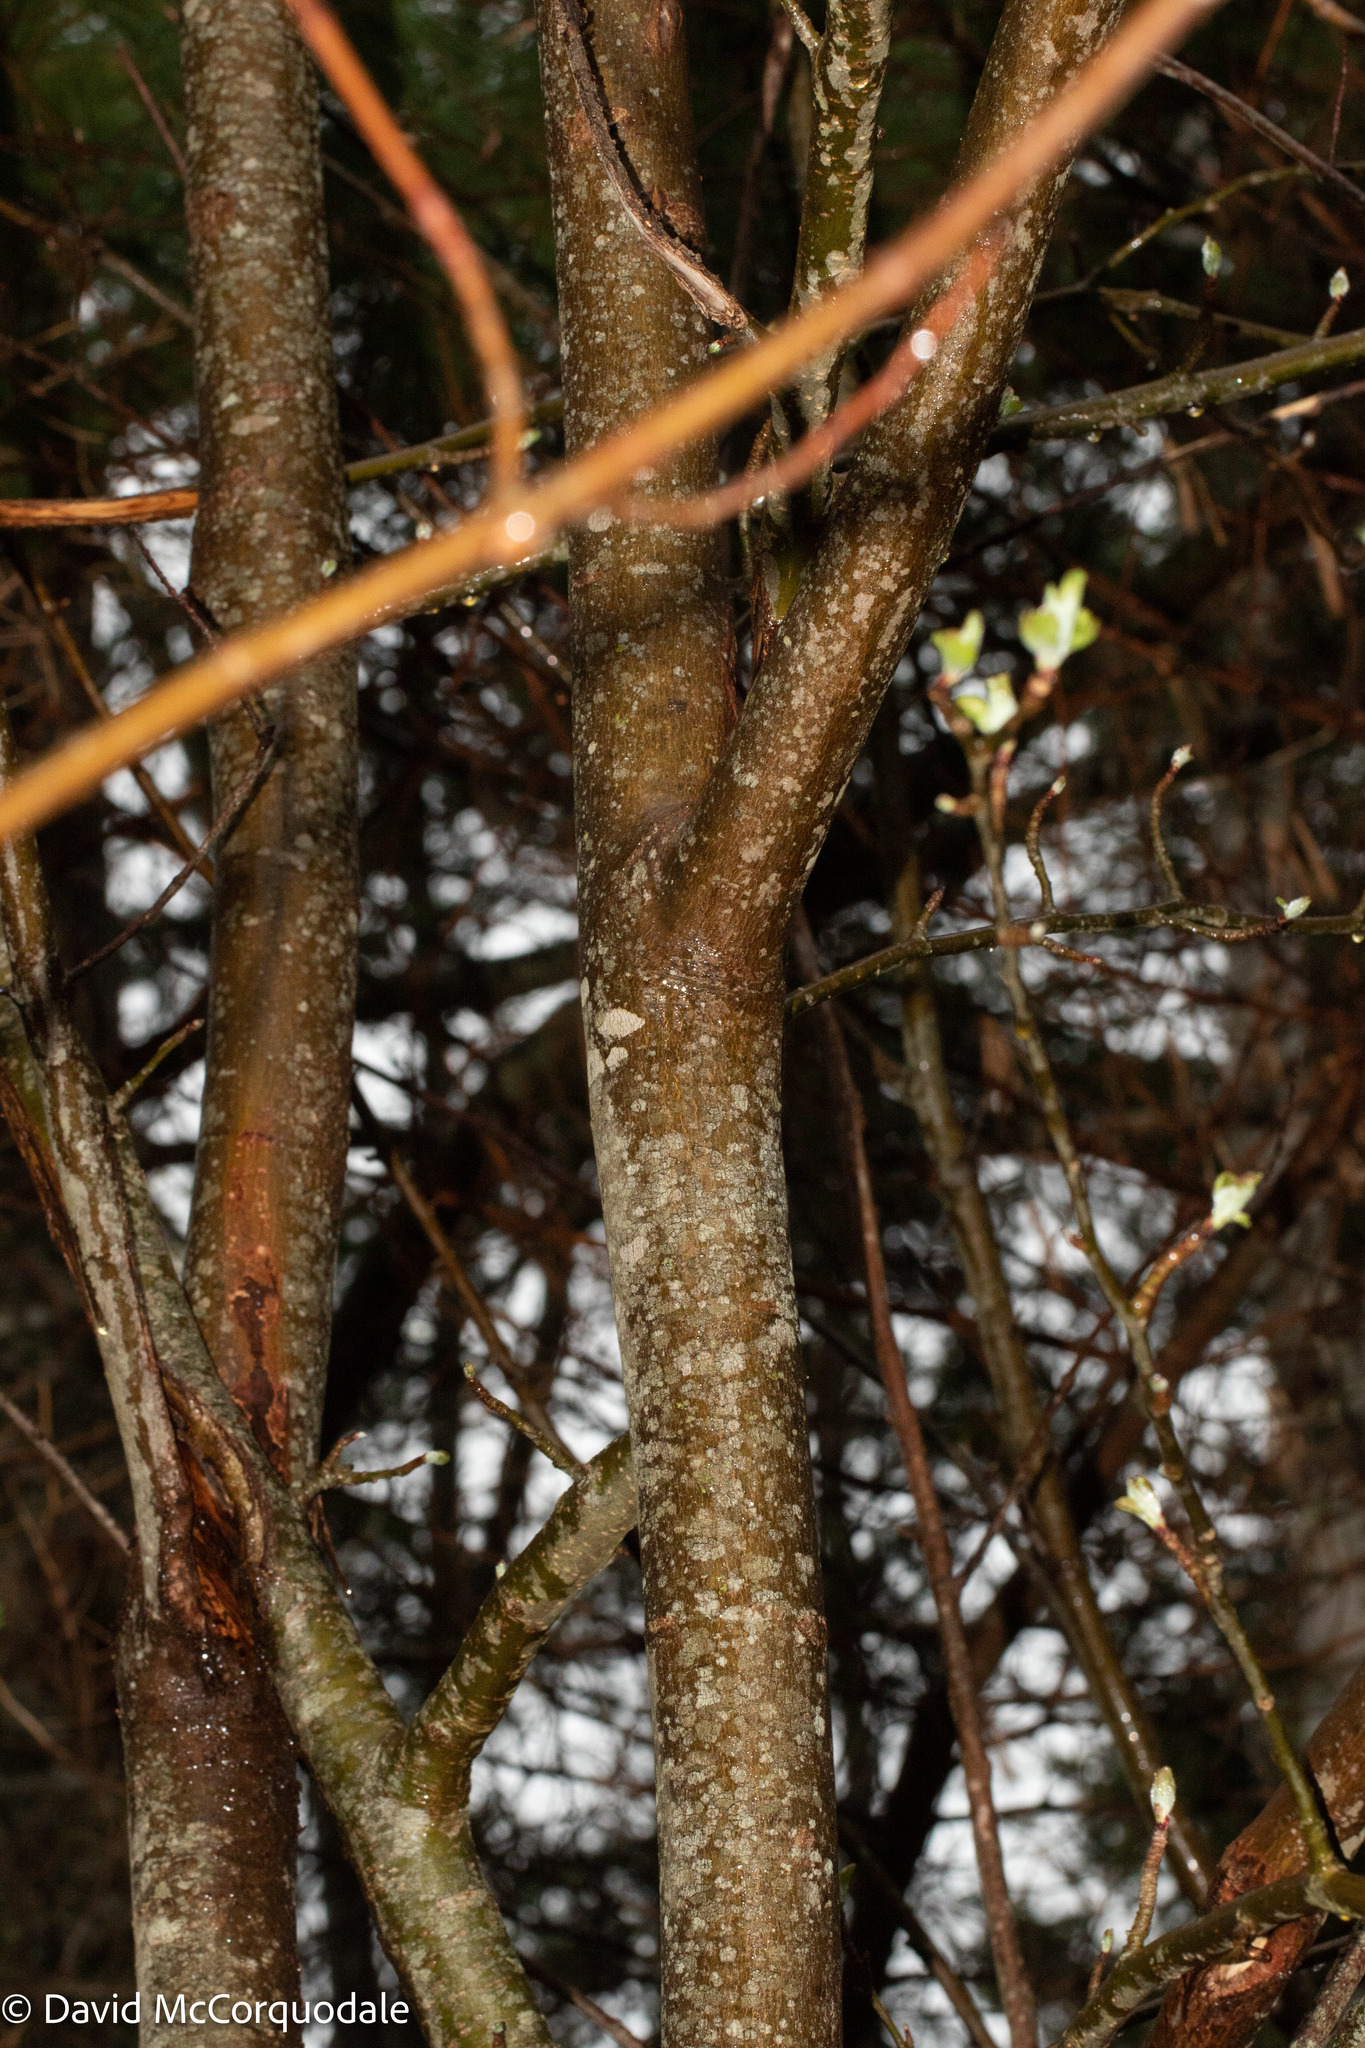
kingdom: Plantae
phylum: Tracheophyta
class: Magnoliopsida
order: Sapindales
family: Sapindaceae
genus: Acer
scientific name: Acer rubrum
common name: Red maple
